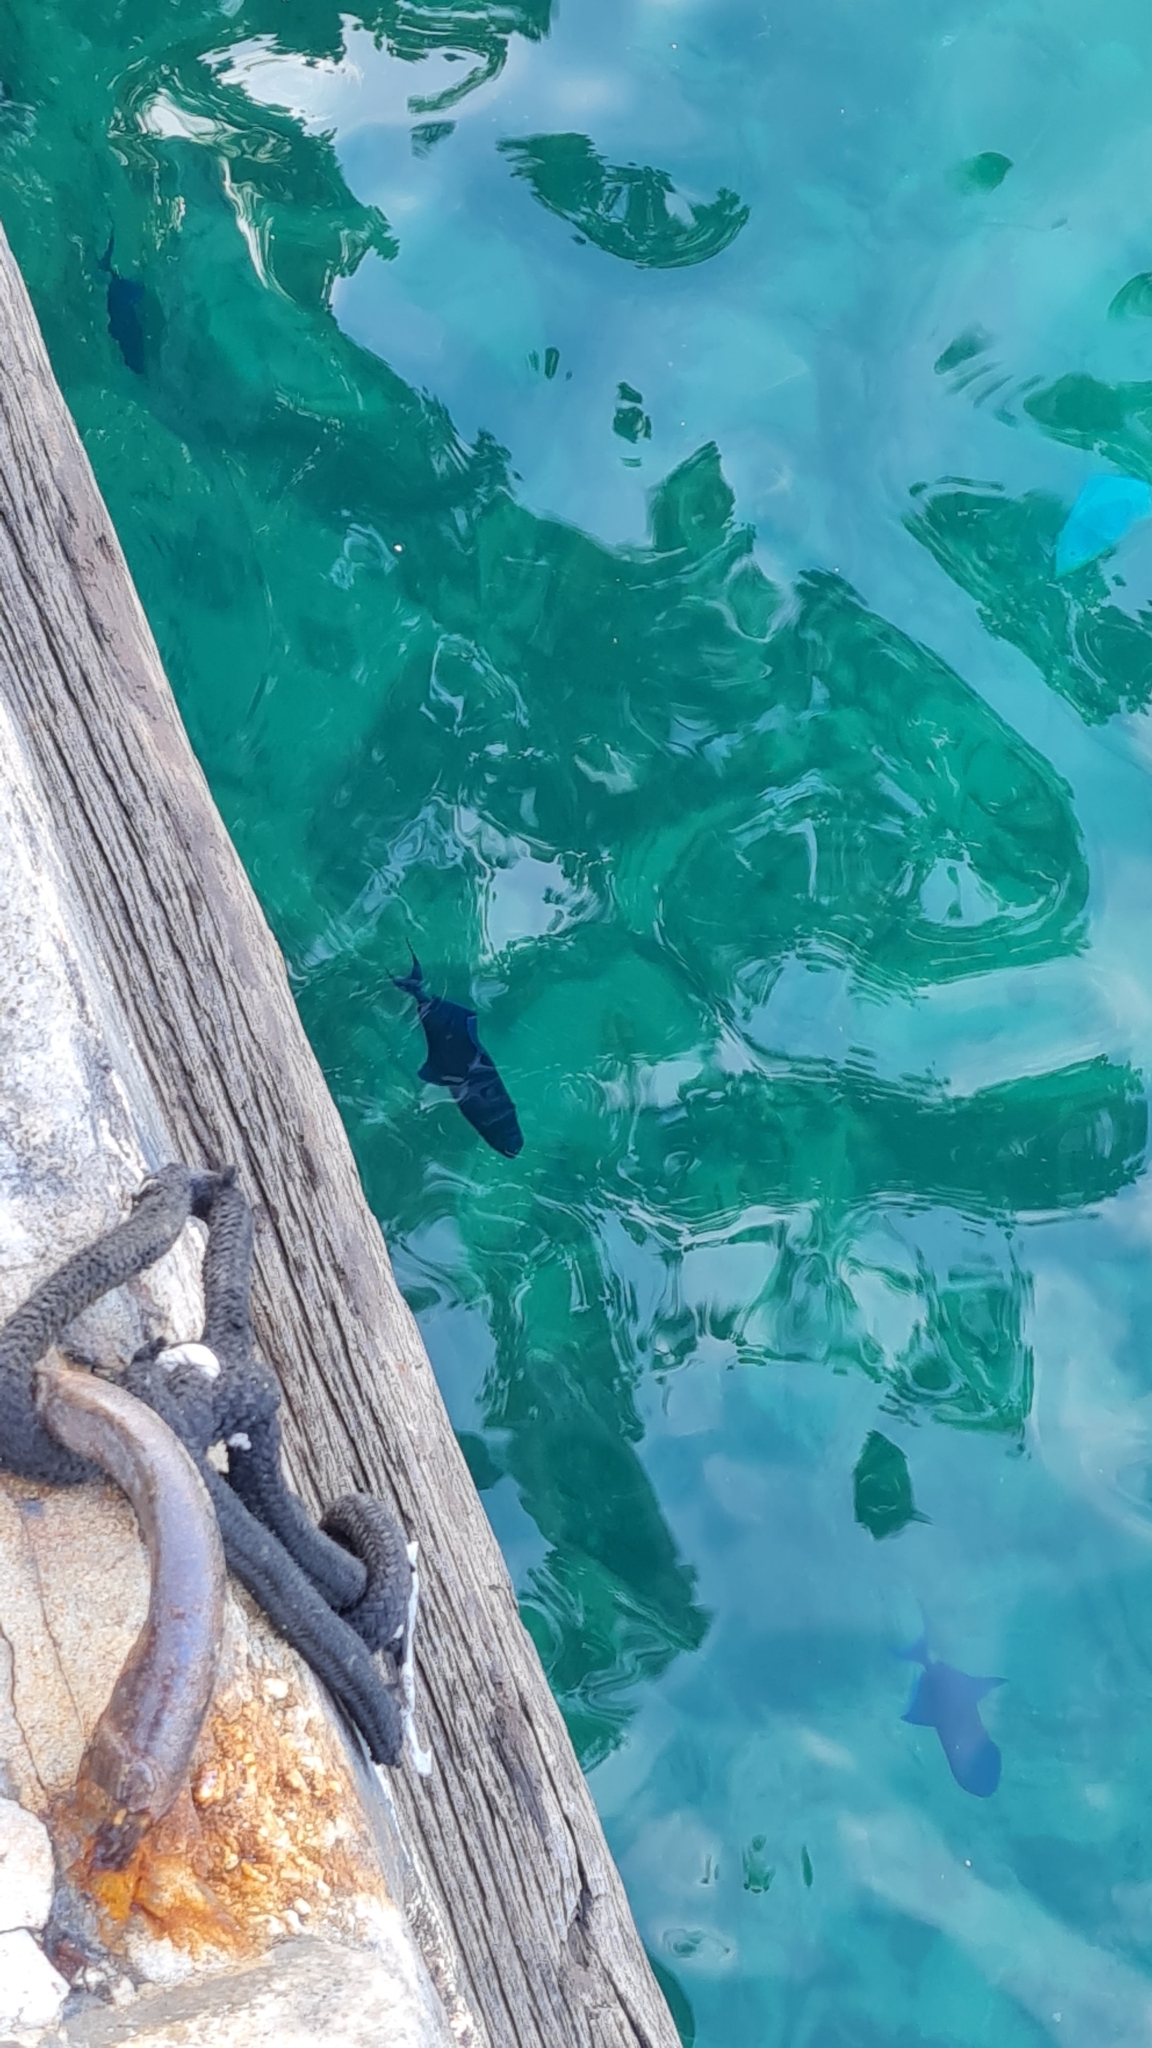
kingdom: Animalia
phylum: Chordata
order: Tetraodontiformes
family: Balistidae
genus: Odonus
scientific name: Odonus niger
